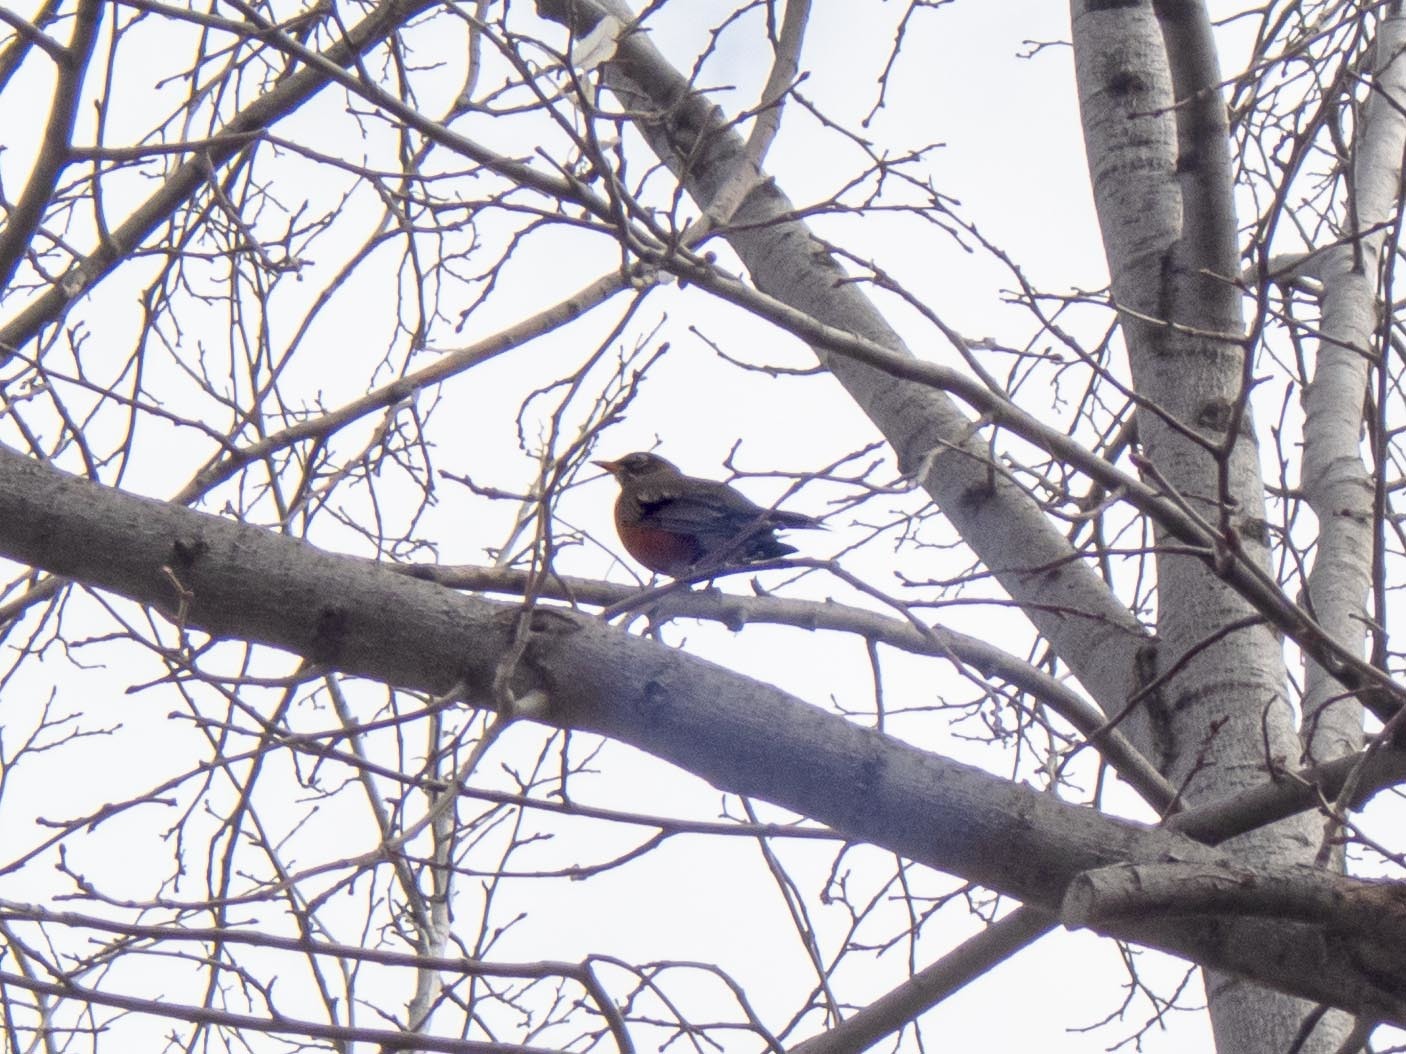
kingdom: Animalia
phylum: Chordata
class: Aves
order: Passeriformes
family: Turdidae
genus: Turdus
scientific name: Turdus migratorius
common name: American robin
